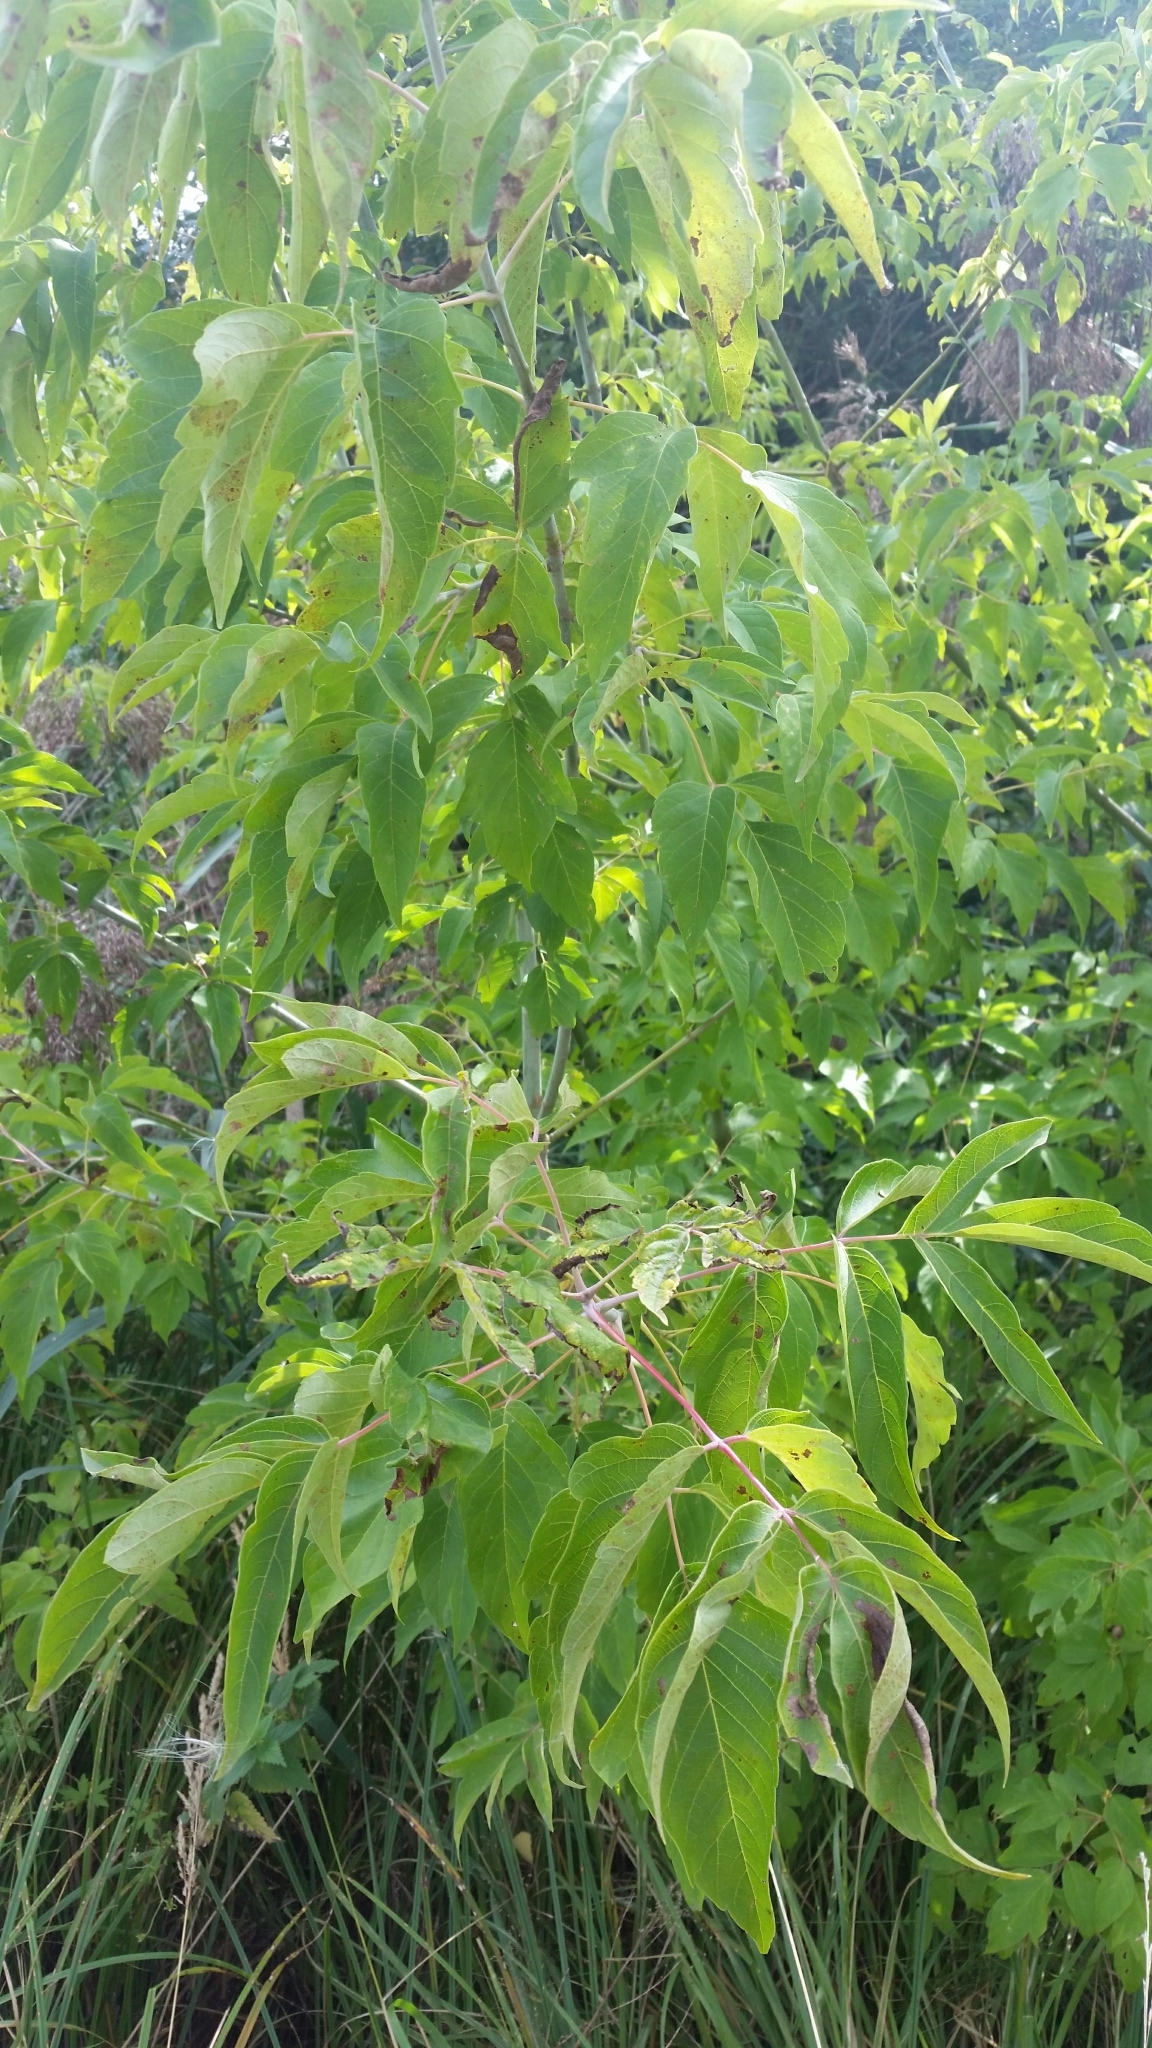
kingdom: Plantae
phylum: Tracheophyta
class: Magnoliopsida
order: Sapindales
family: Sapindaceae
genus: Acer
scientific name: Acer negundo
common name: Ashleaf maple
